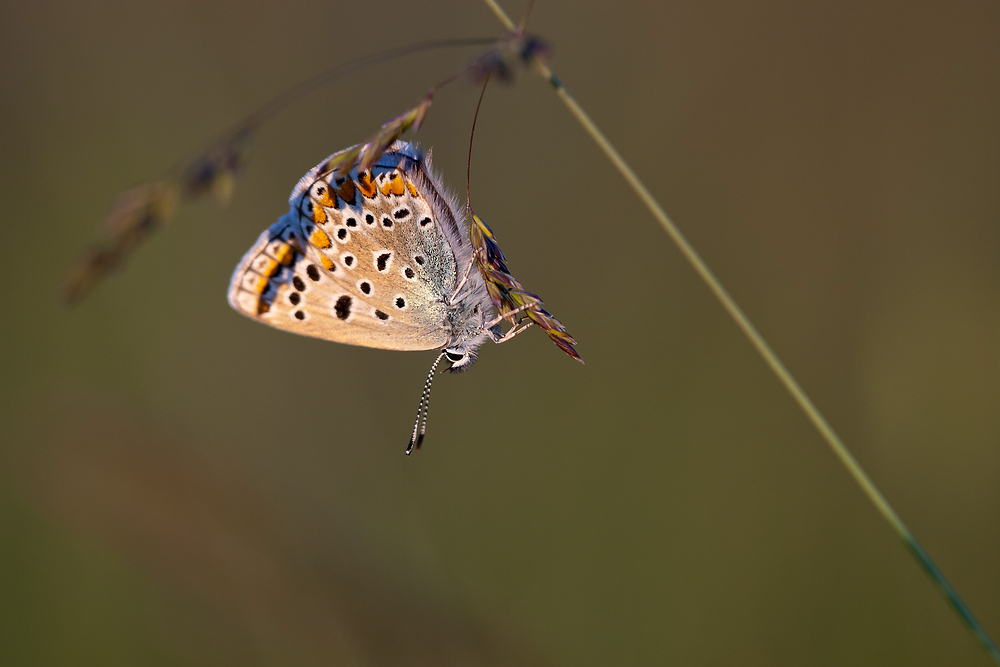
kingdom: Animalia
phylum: Arthropoda
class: Insecta
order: Lepidoptera
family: Lycaenidae
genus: Polyommatus
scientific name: Polyommatus icarus
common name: Common blue
